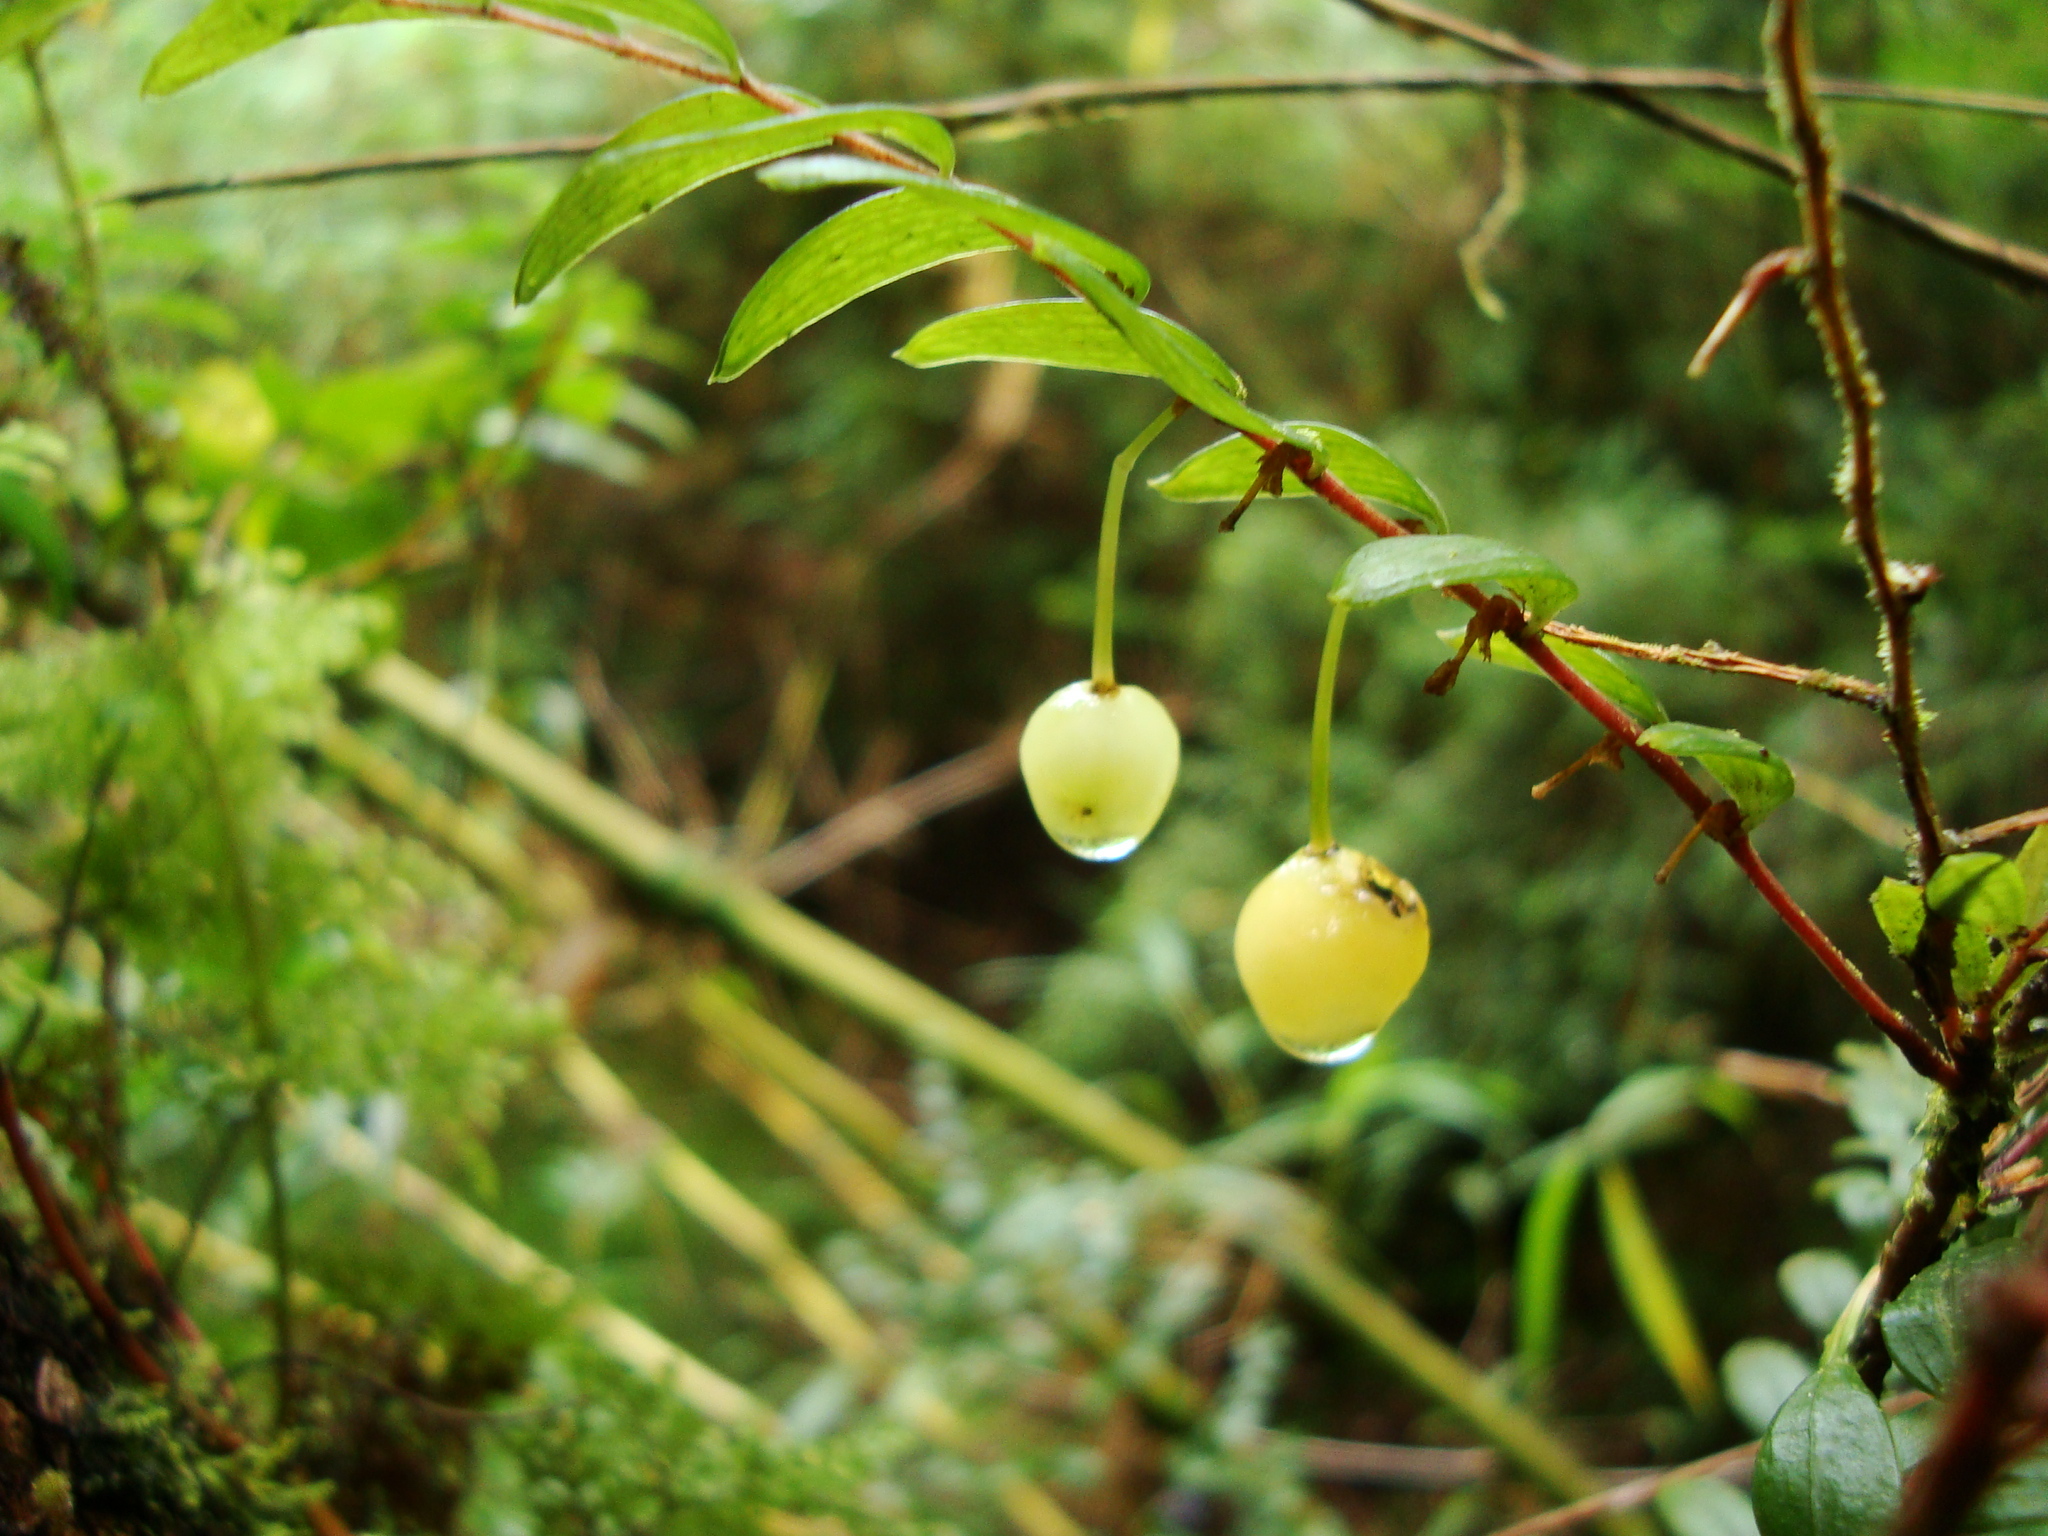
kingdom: Plantae
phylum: Tracheophyta
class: Liliopsida
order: Liliales
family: Alstroemeriaceae
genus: Luzuriaga
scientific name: Luzuriaga polyphylla
